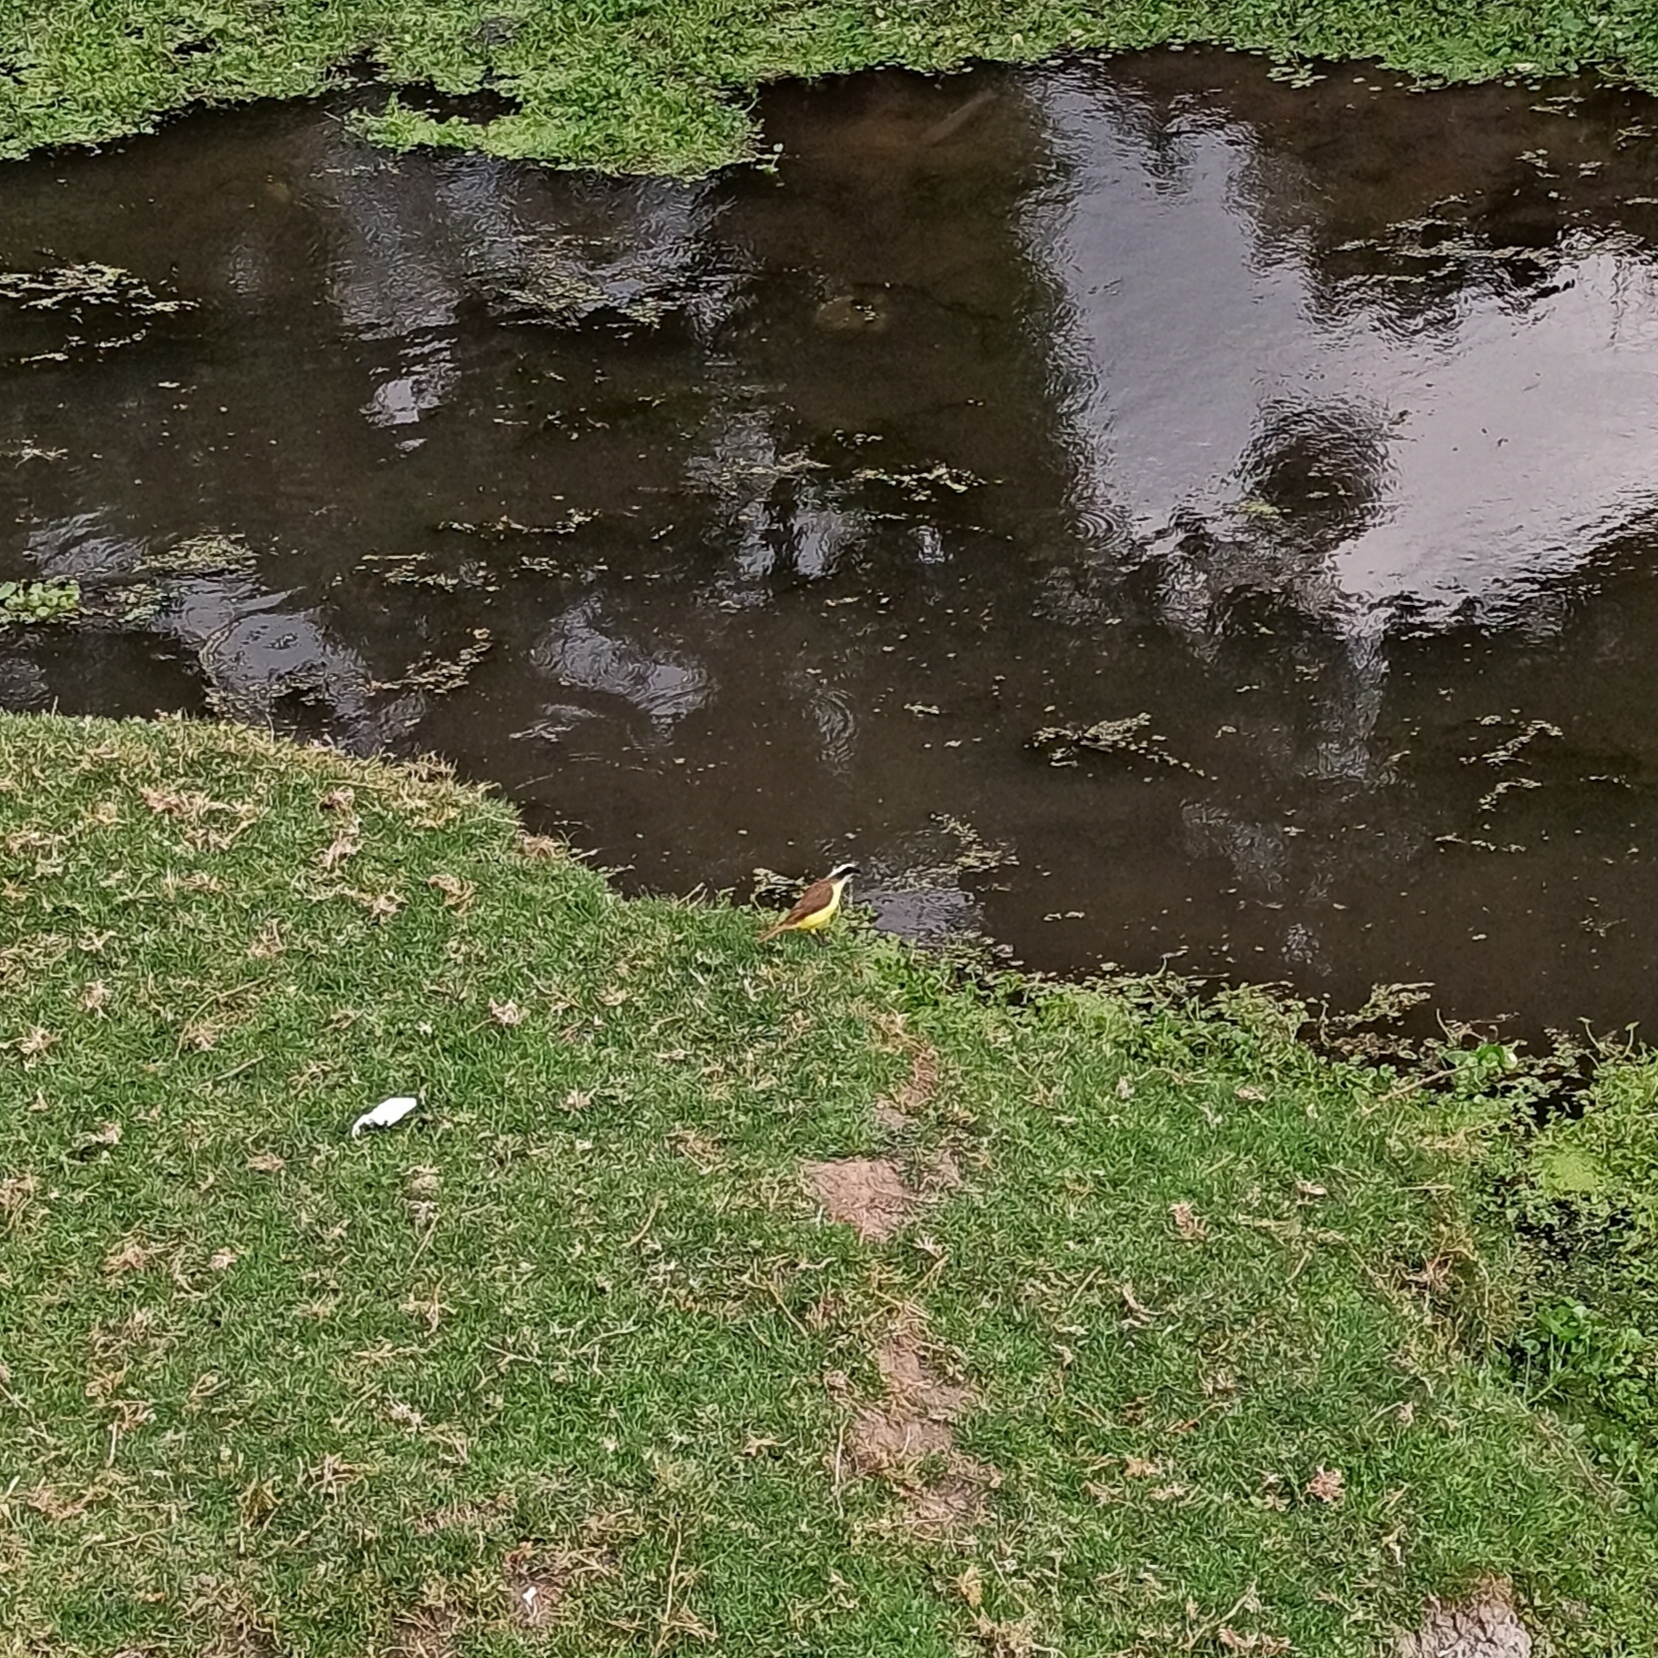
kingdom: Animalia
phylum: Chordata
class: Aves
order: Passeriformes
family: Tyrannidae
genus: Pitangus
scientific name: Pitangus sulphuratus
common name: Great kiskadee
